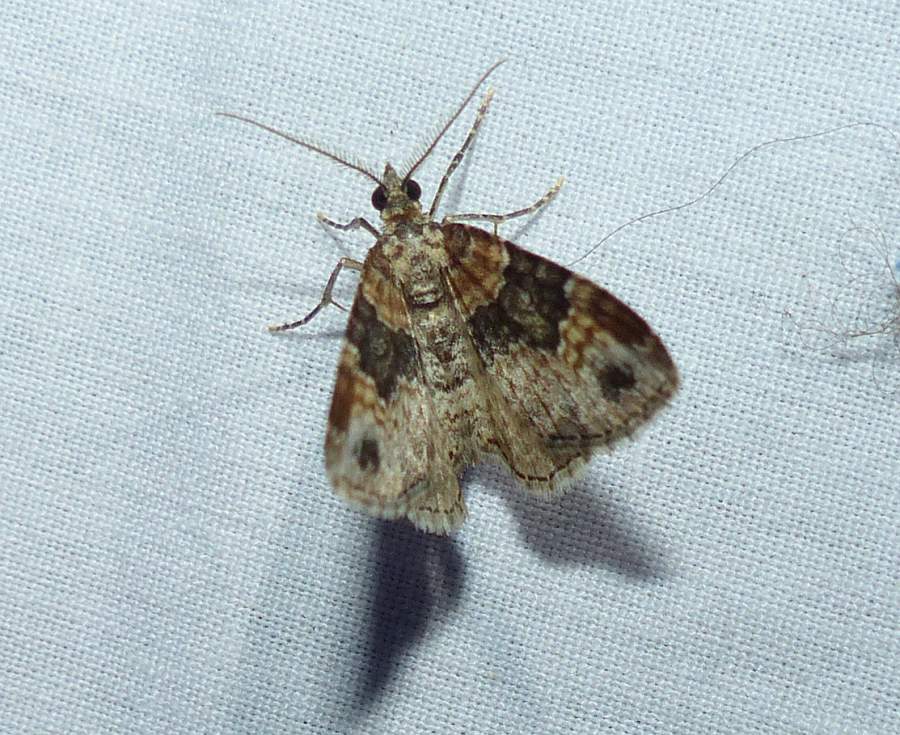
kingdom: Animalia
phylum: Arthropoda
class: Insecta
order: Lepidoptera
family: Geometridae
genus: Xanthorhoe
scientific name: Xanthorhoe ferrugata
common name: Dark-barred twin-spot carpet
